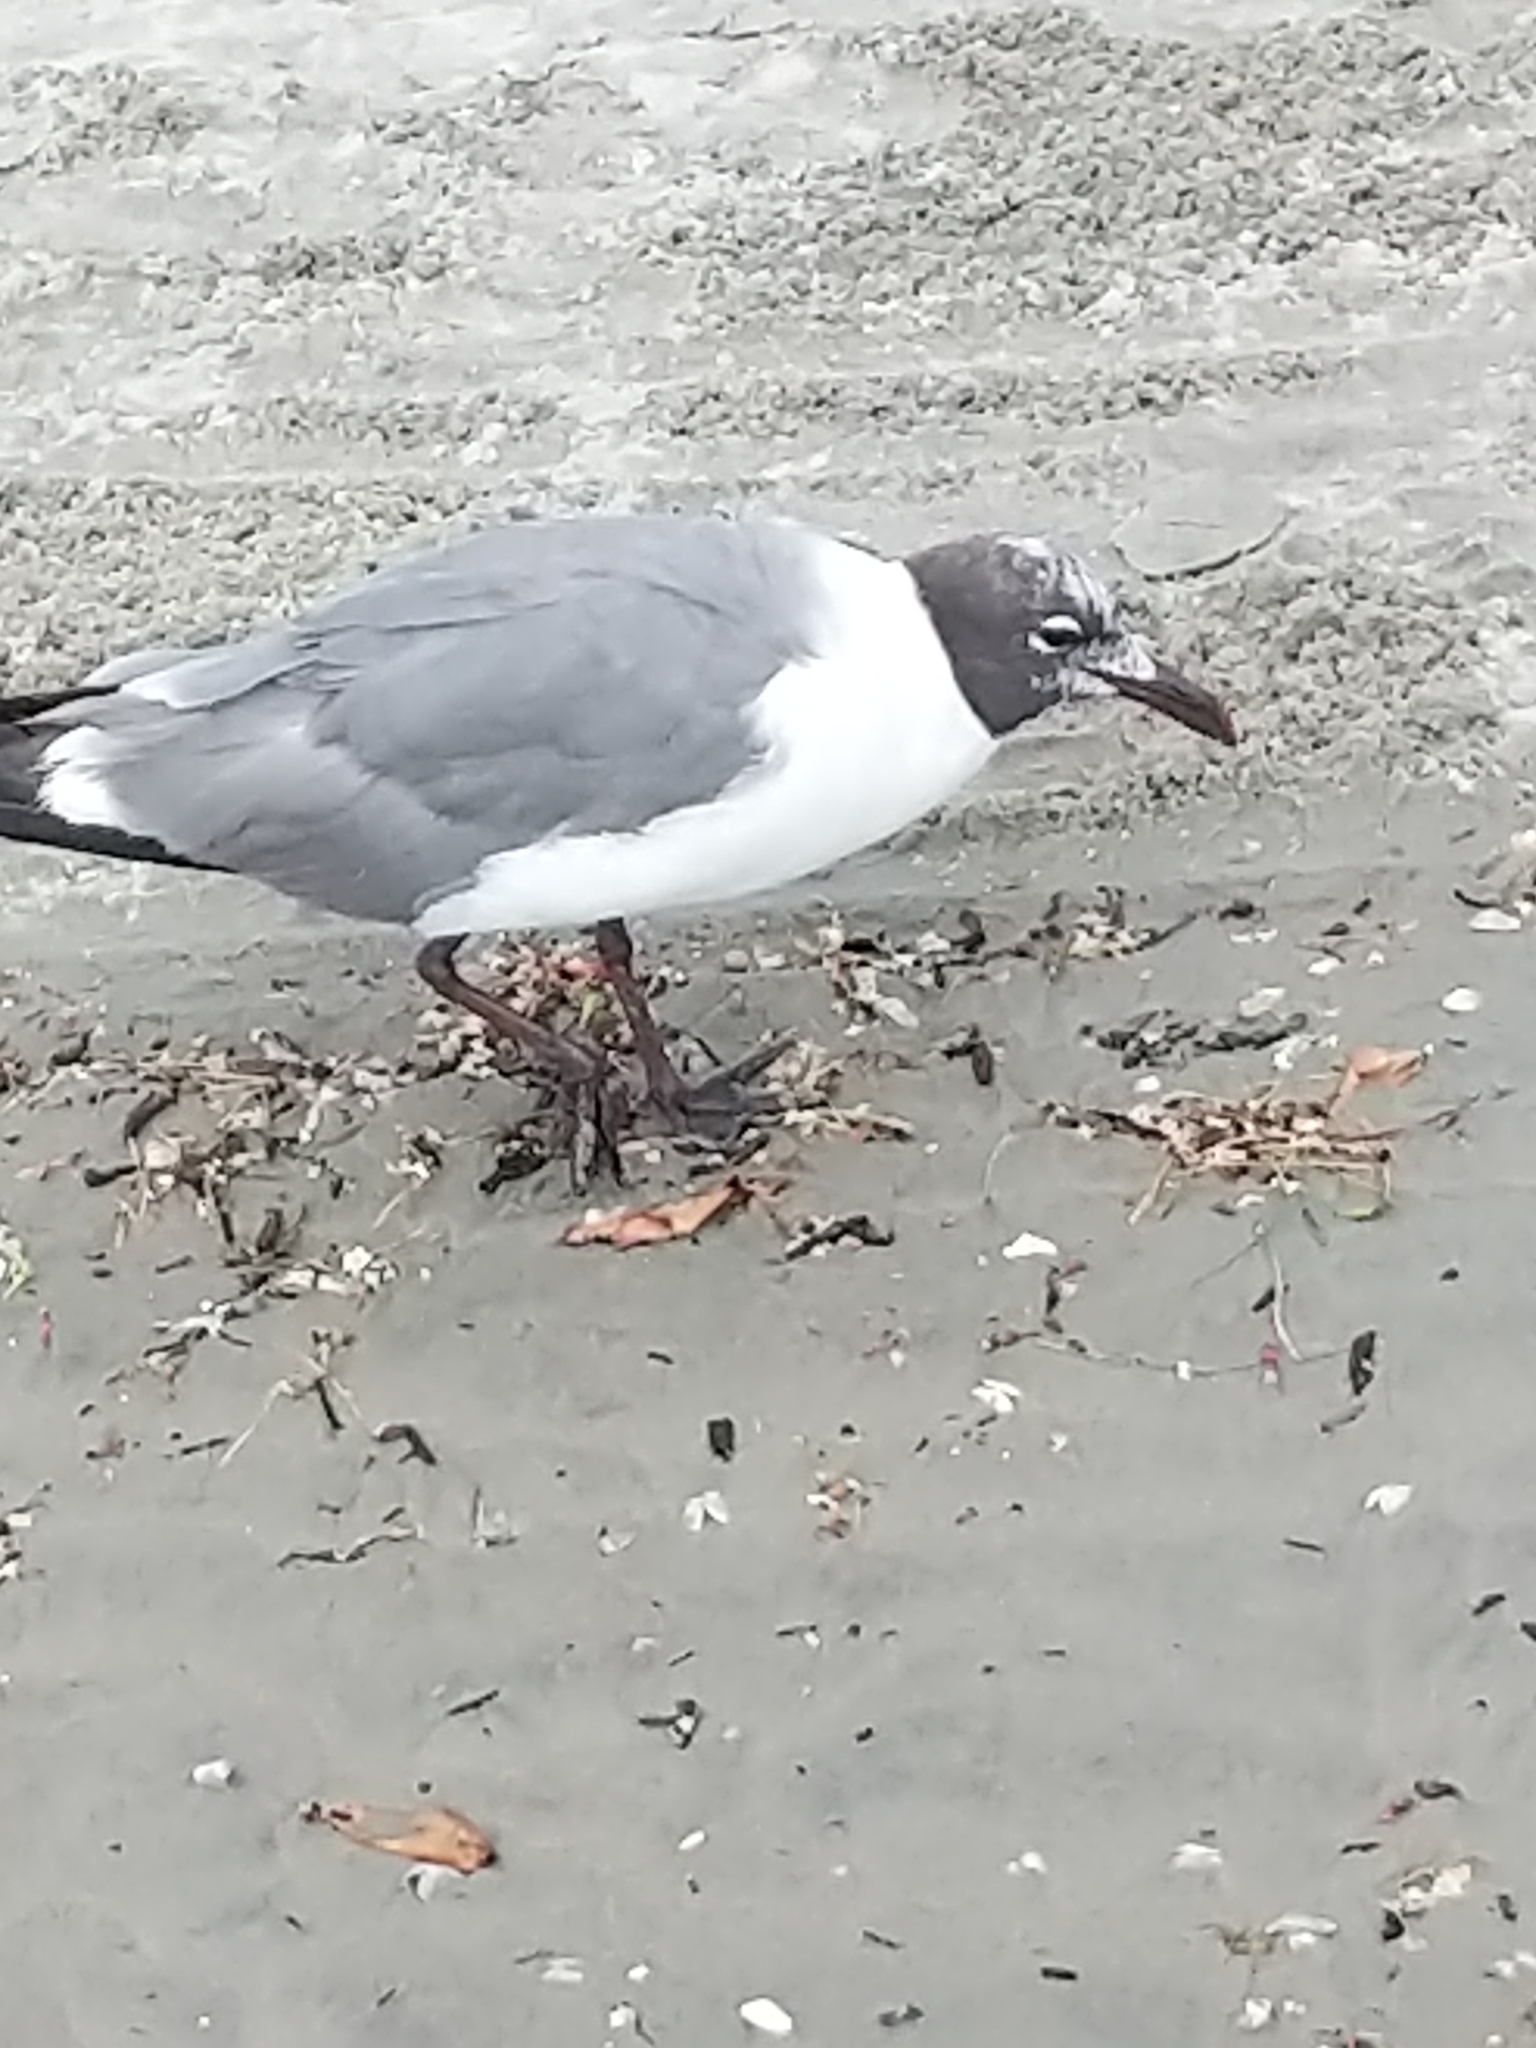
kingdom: Animalia
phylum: Chordata
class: Aves
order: Charadriiformes
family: Laridae
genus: Leucophaeus
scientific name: Leucophaeus atricilla
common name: Laughing gull
